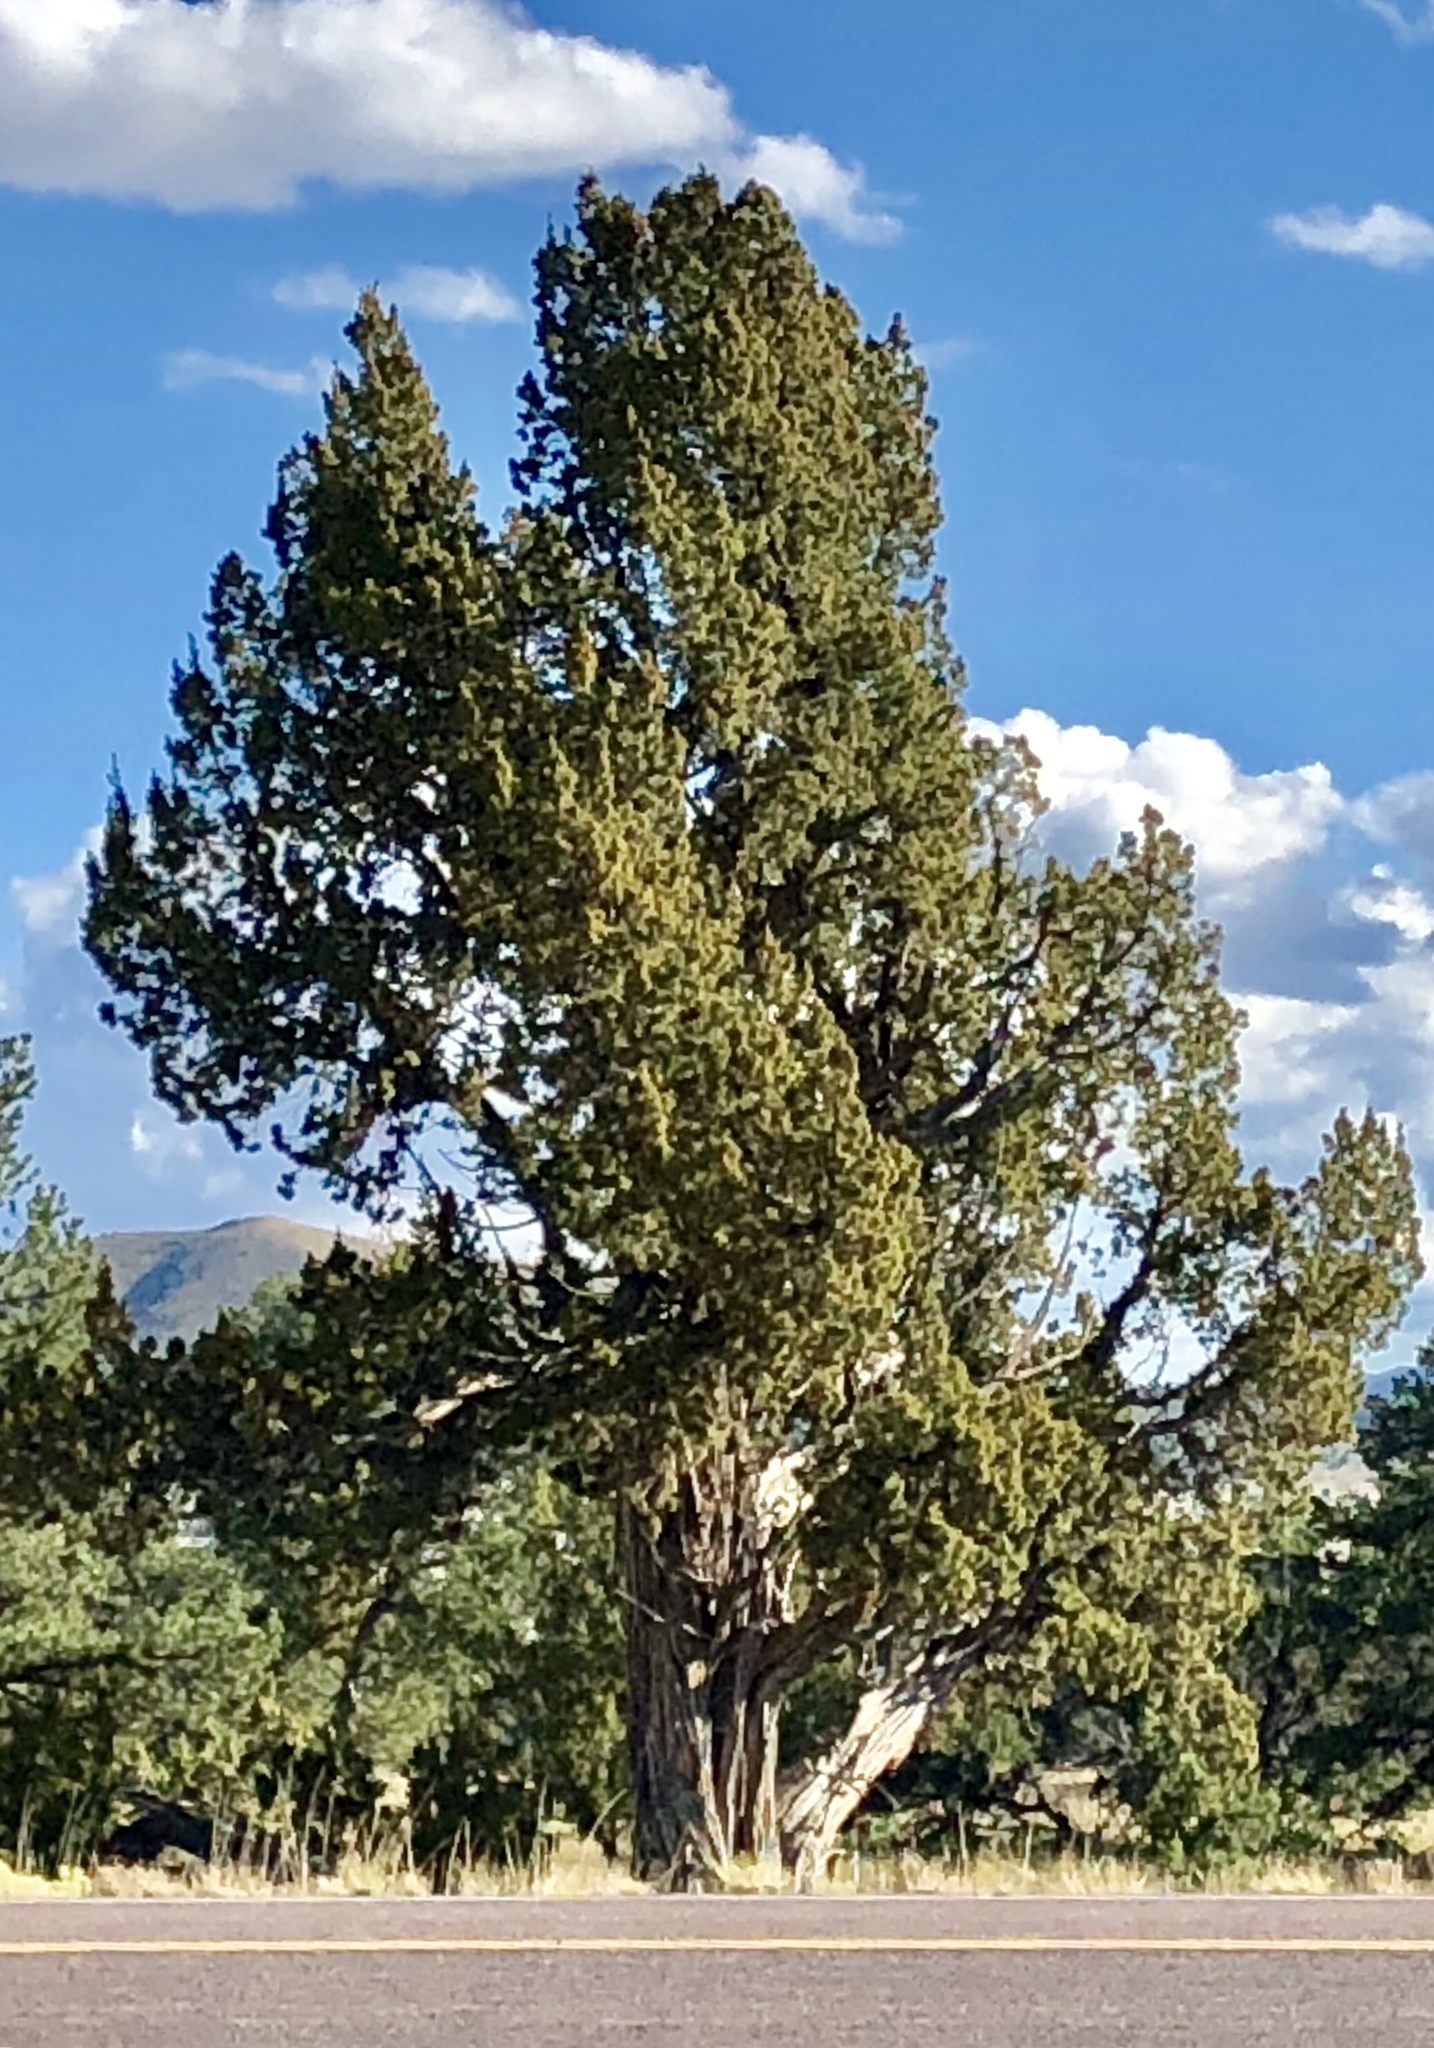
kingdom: Plantae
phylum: Tracheophyta
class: Pinopsida
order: Pinales
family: Cupressaceae
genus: Juniperus
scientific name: Juniperus monosperma
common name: One-seed juniper
